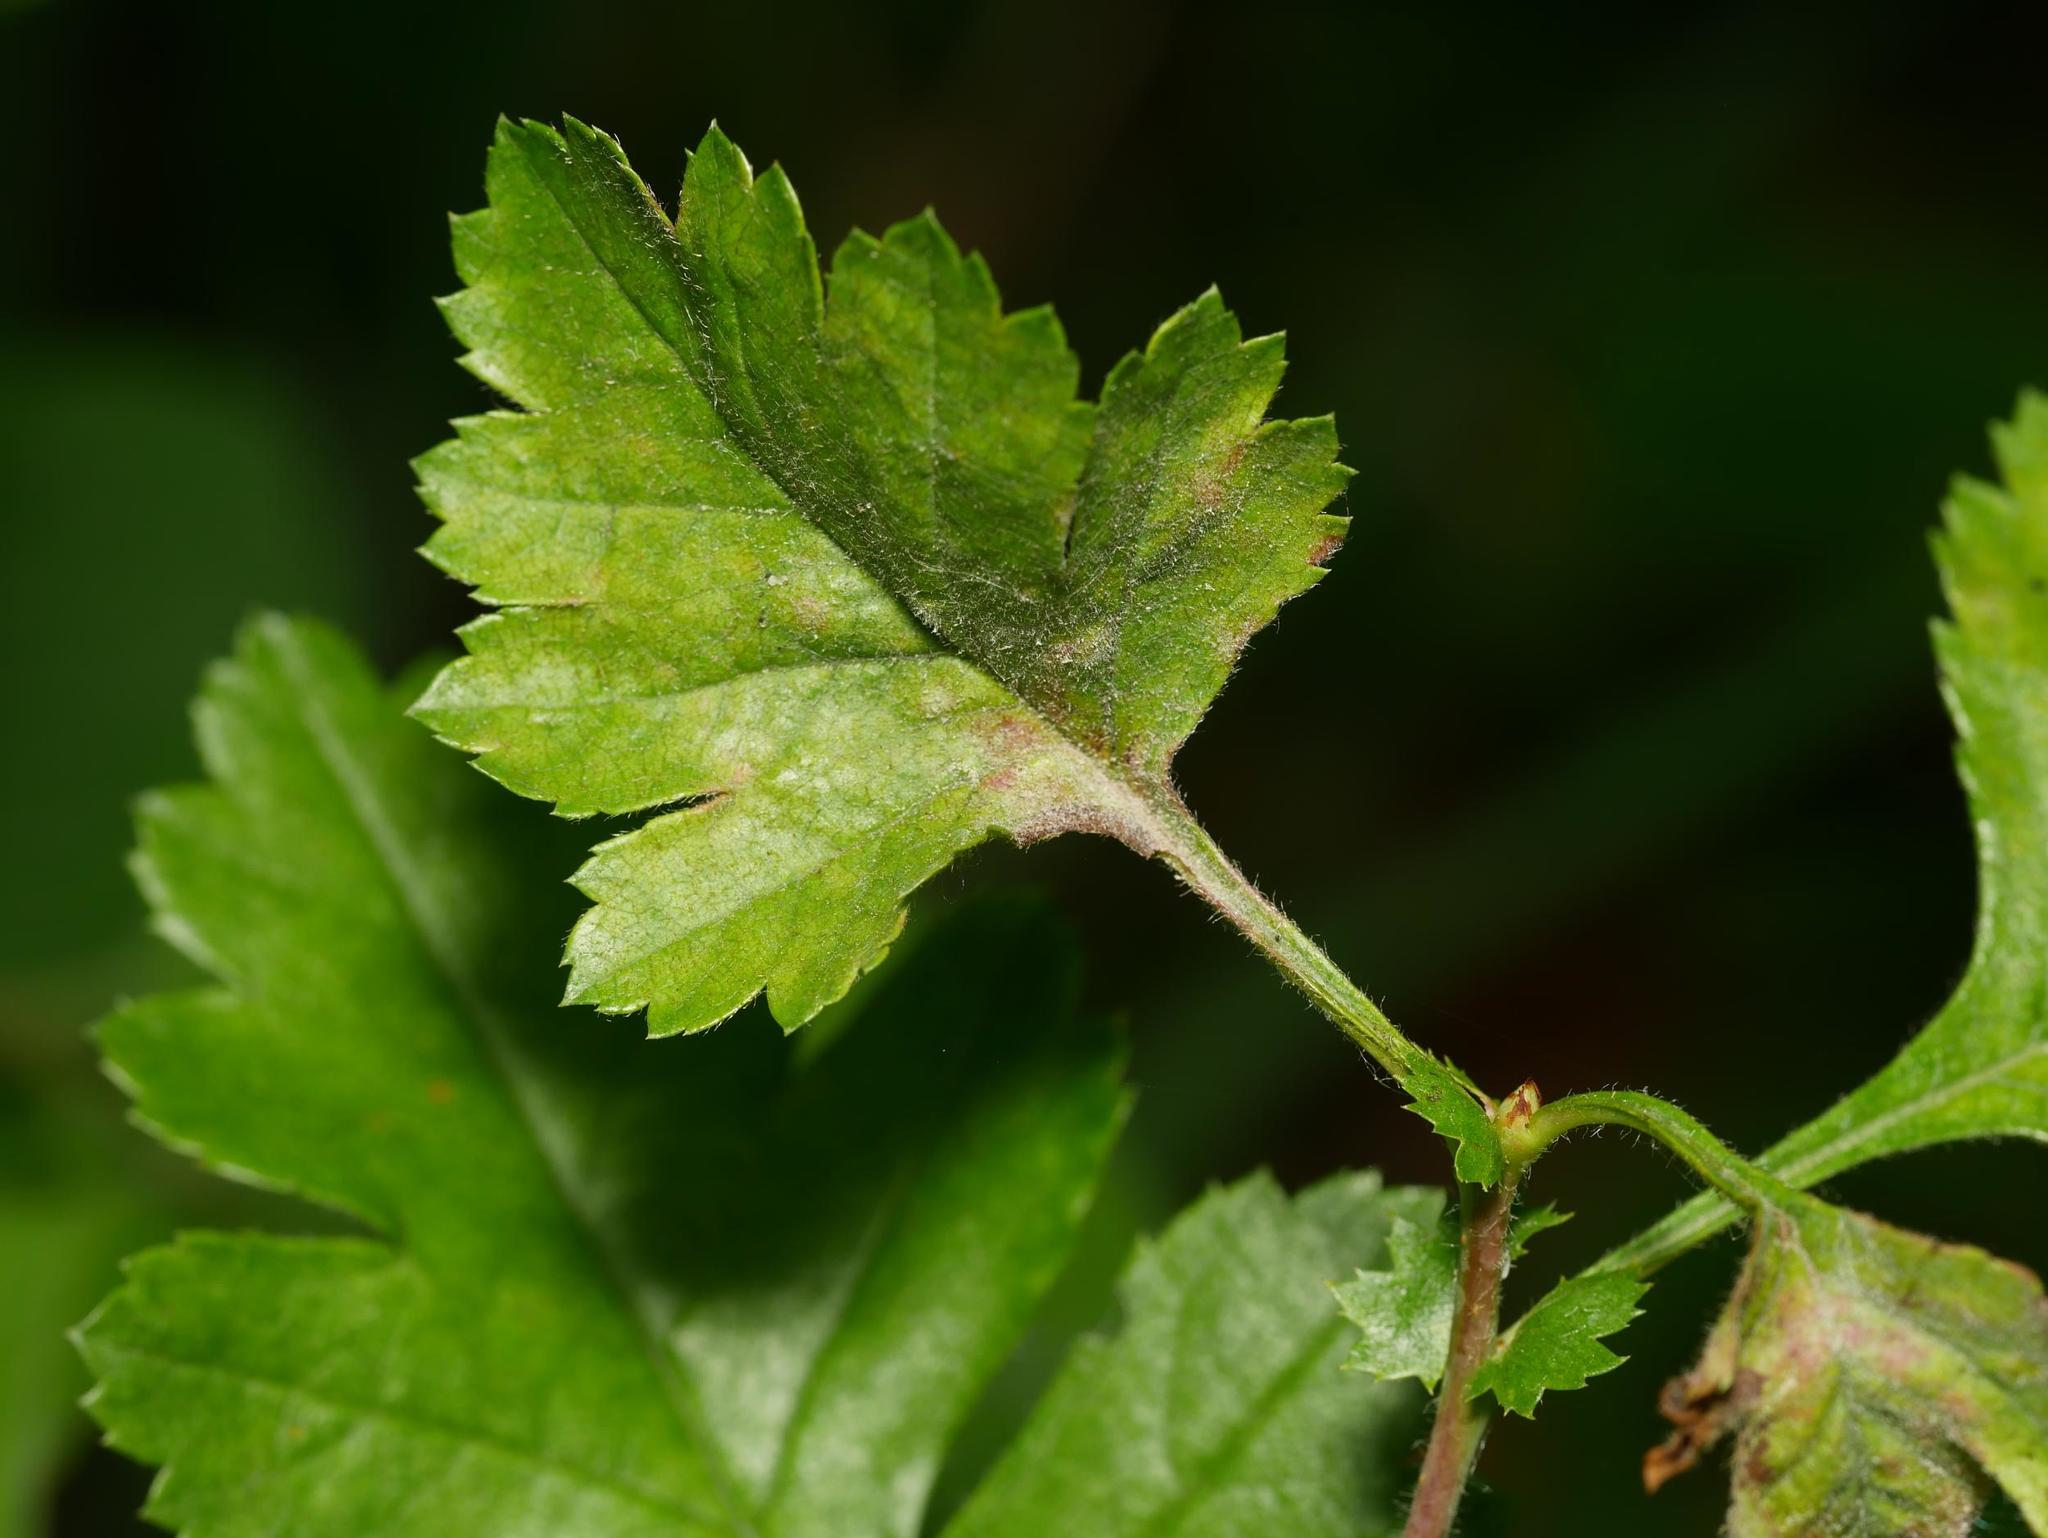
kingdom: Fungi
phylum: Ascomycota
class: Leotiomycetes
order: Helotiales
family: Erysiphaceae
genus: Podosphaera
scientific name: Podosphaera clandestina
